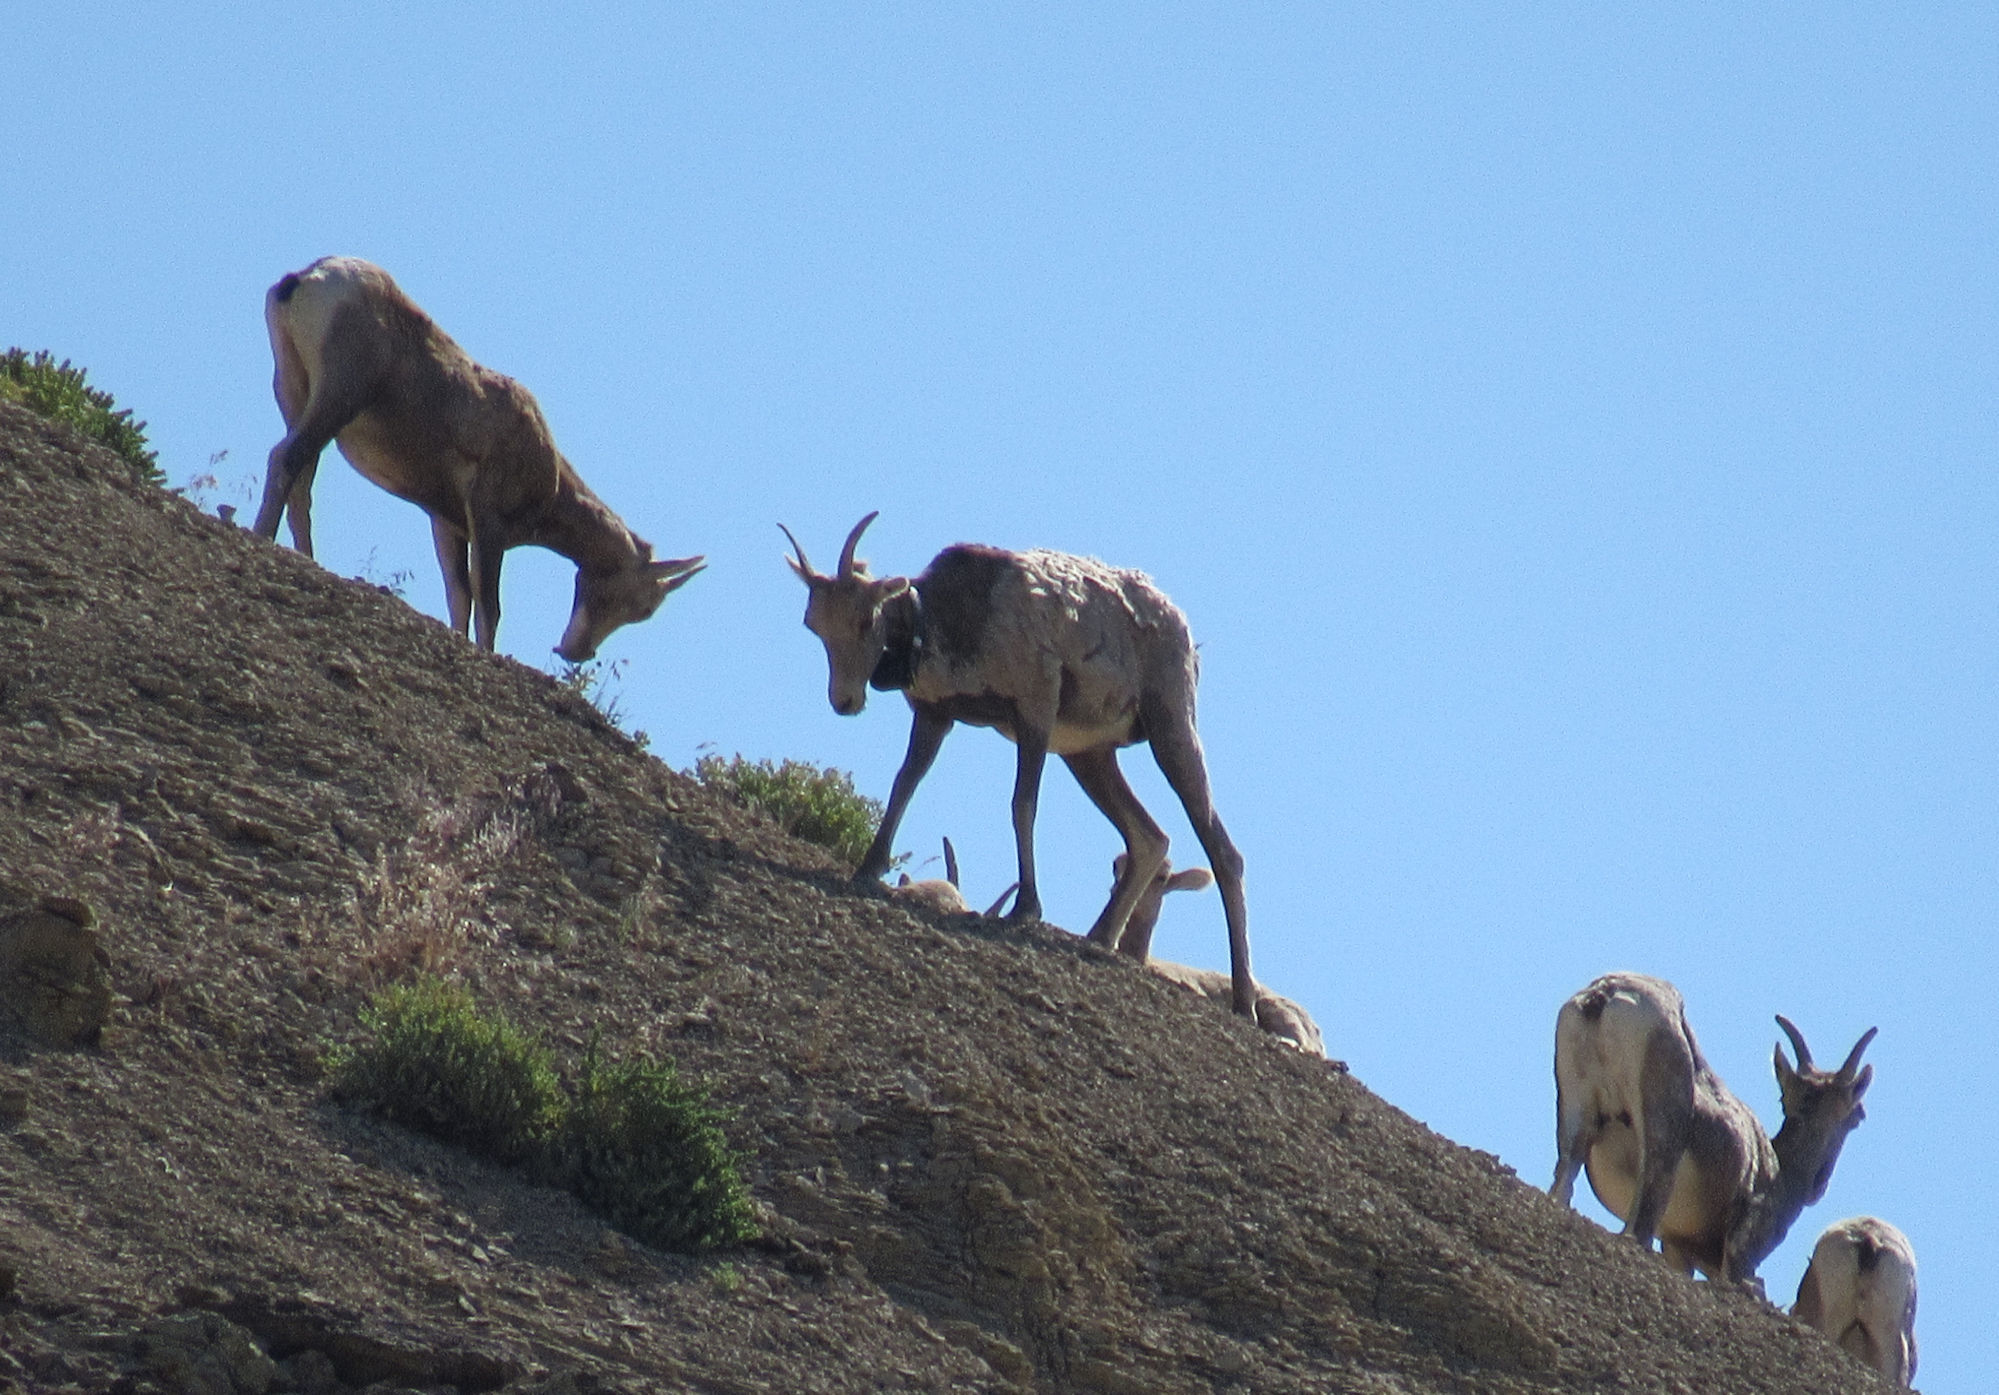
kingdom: Animalia
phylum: Chordata
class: Mammalia
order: Artiodactyla
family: Bovidae
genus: Ovis
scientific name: Ovis canadensis
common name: Bighorn sheep
